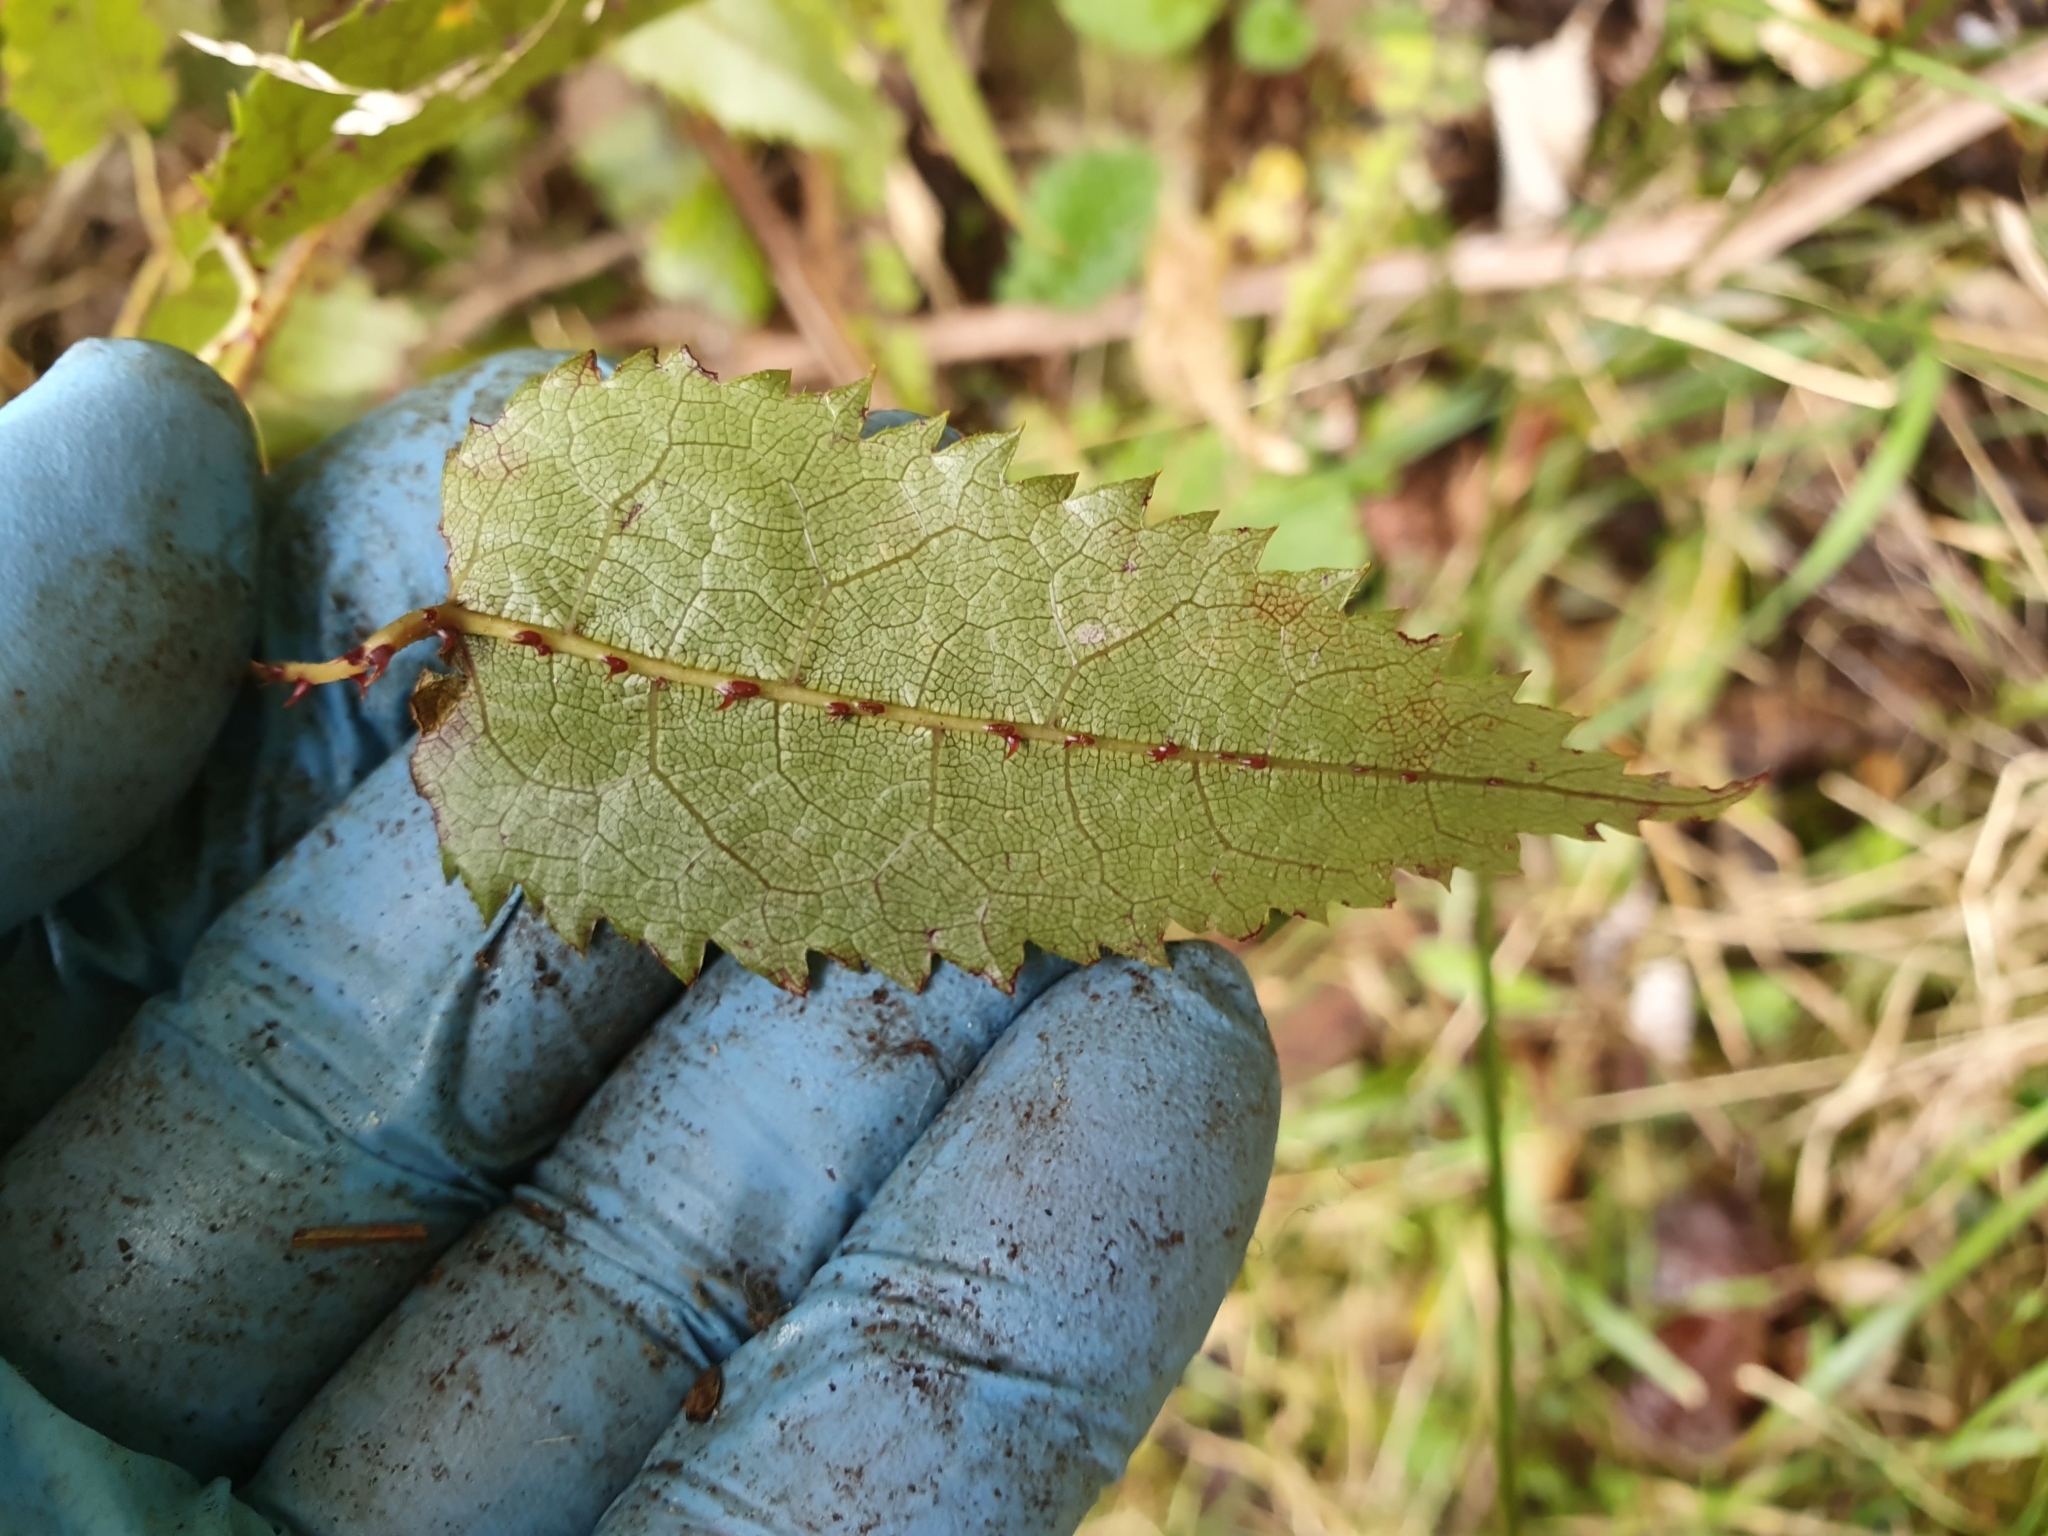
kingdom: Plantae
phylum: Tracheophyta
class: Magnoliopsida
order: Rosales
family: Rosaceae
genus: Rubus
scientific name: Rubus cissoides
